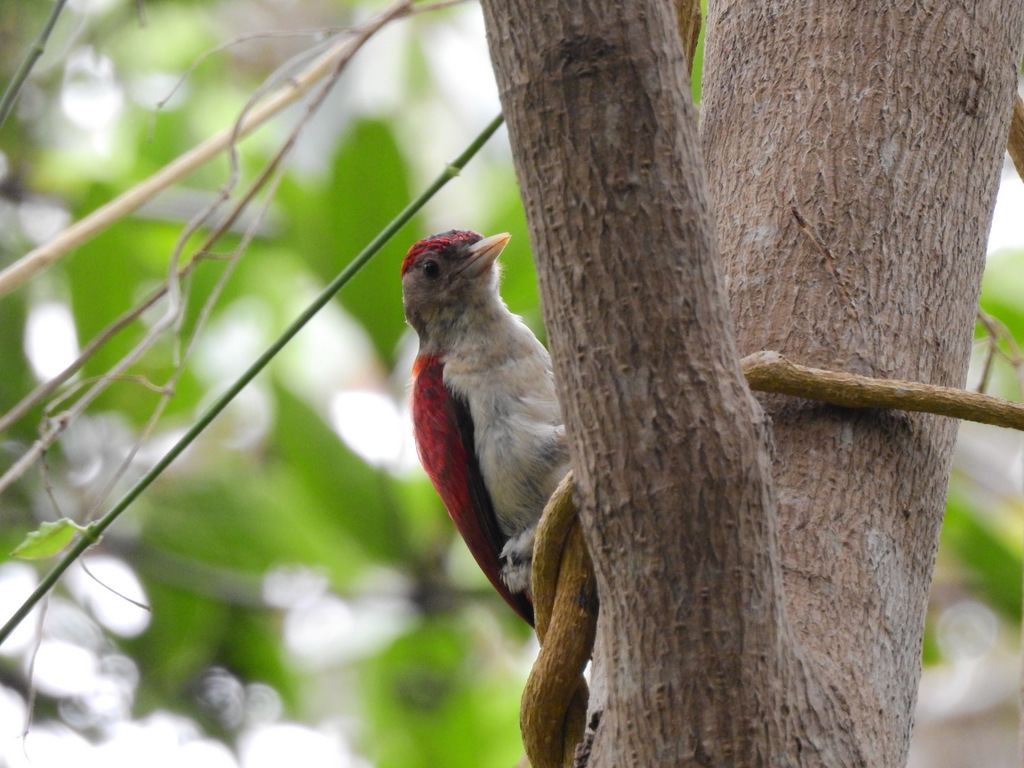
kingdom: Animalia
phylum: Chordata
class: Aves
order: Piciformes
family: Picidae
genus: Veniliornis
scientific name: Veniliornis callonotus
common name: Scarlet-backed woodpecker
